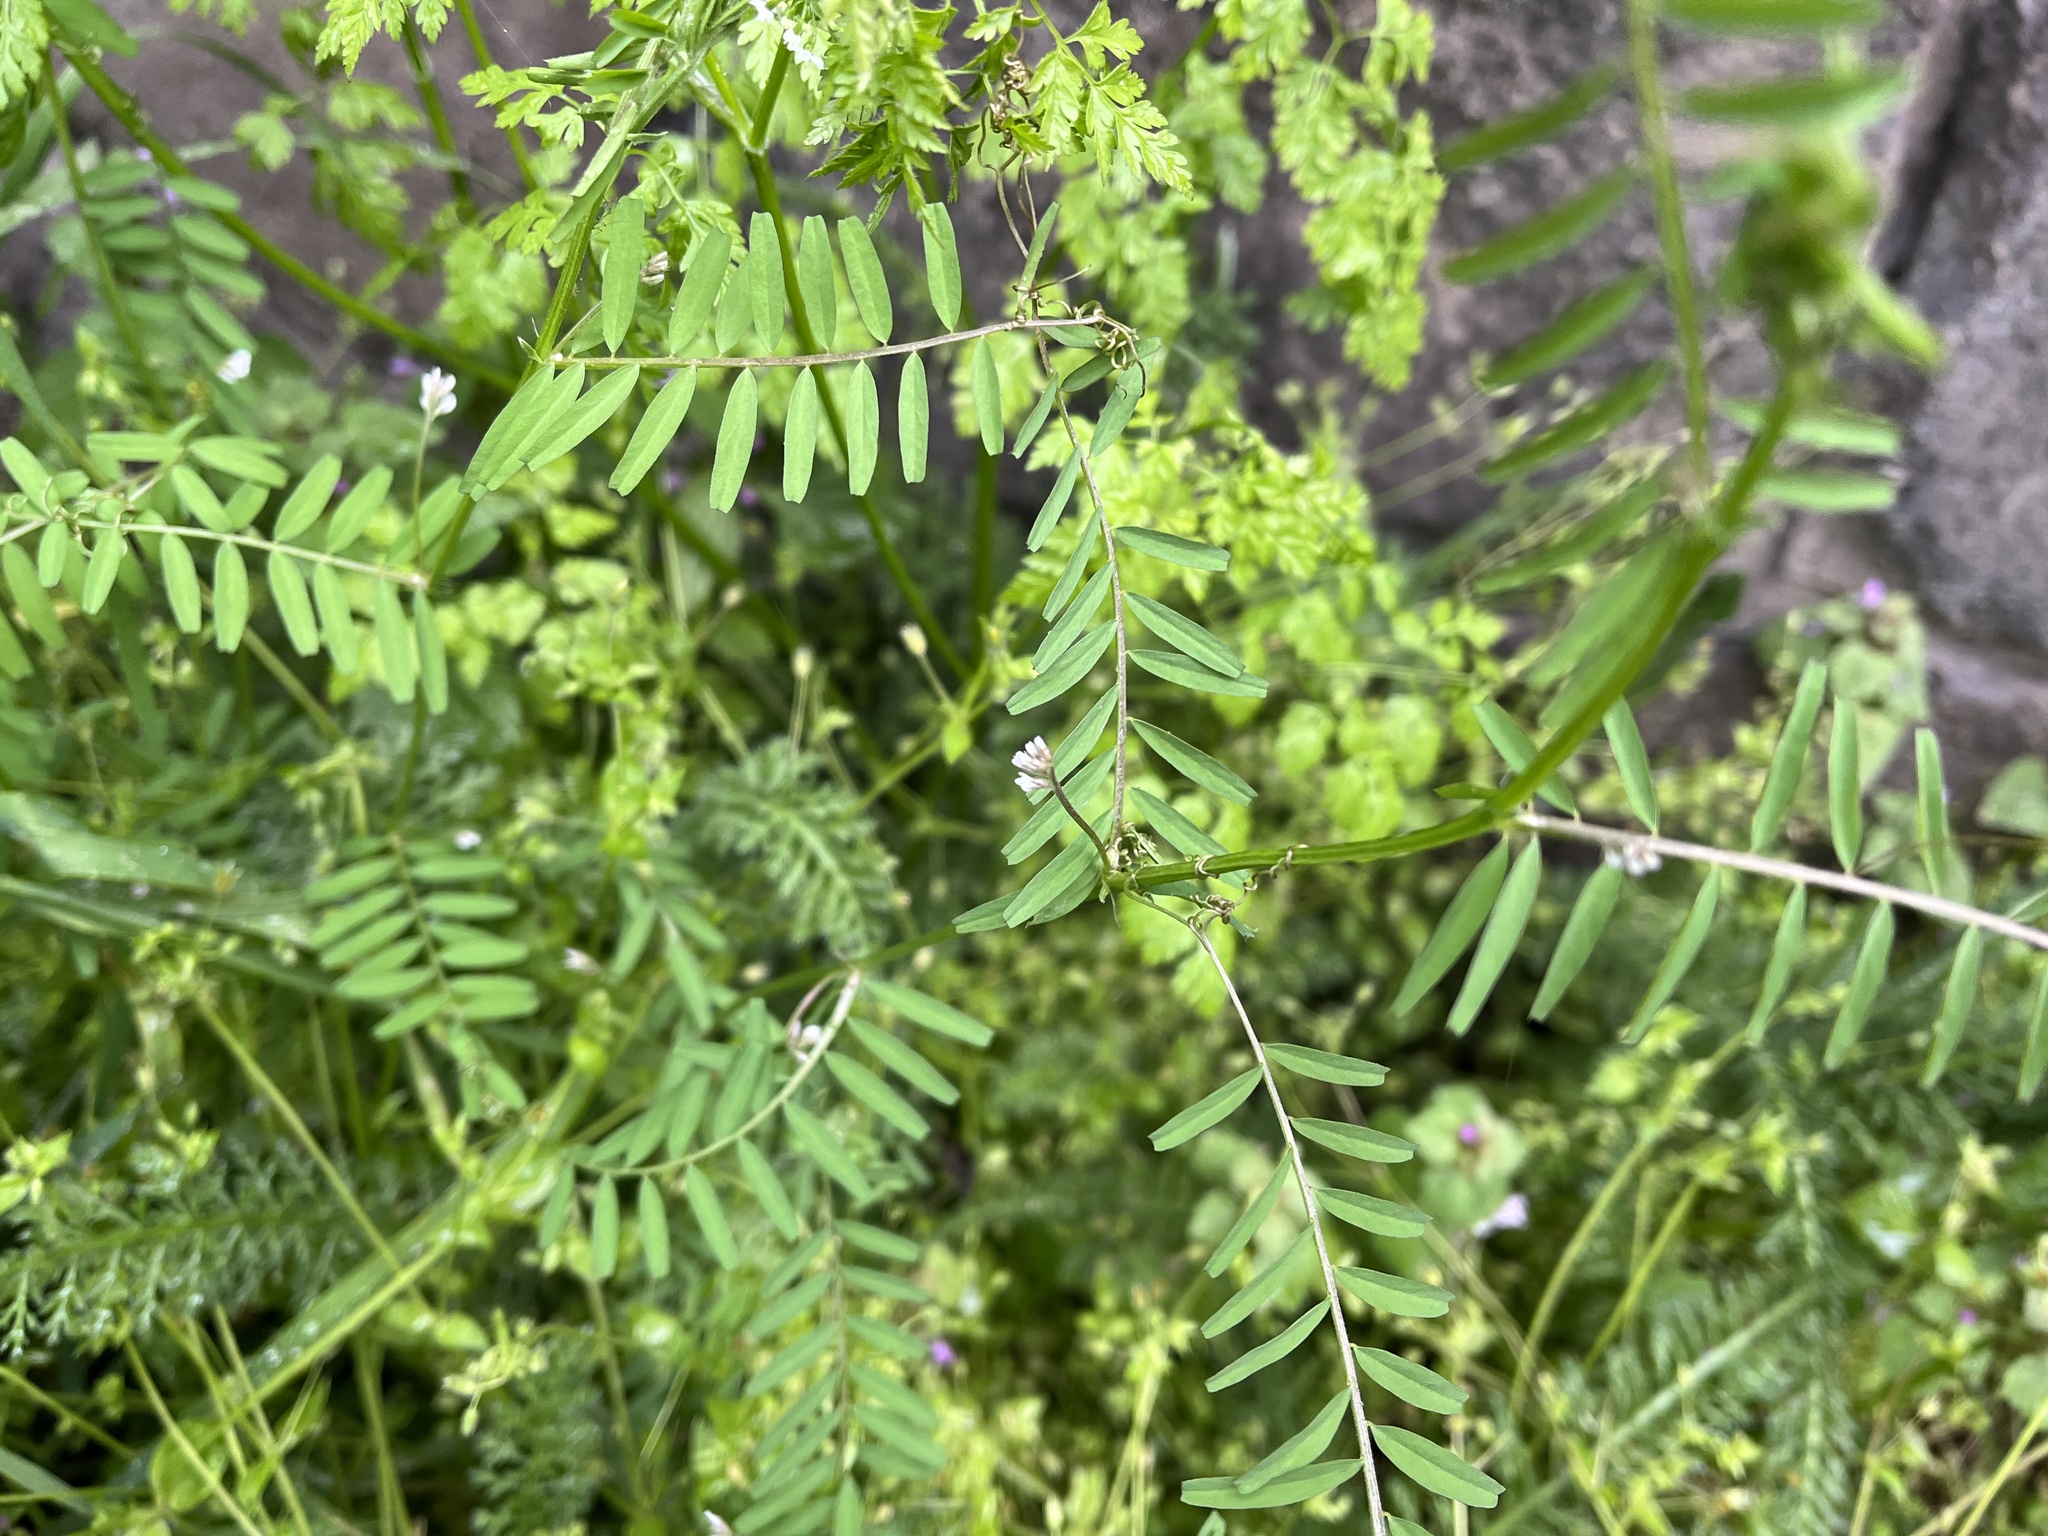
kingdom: Plantae
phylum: Tracheophyta
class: Magnoliopsida
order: Fabales
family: Fabaceae
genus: Vicia
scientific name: Vicia hirsuta
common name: Tiny vetch
